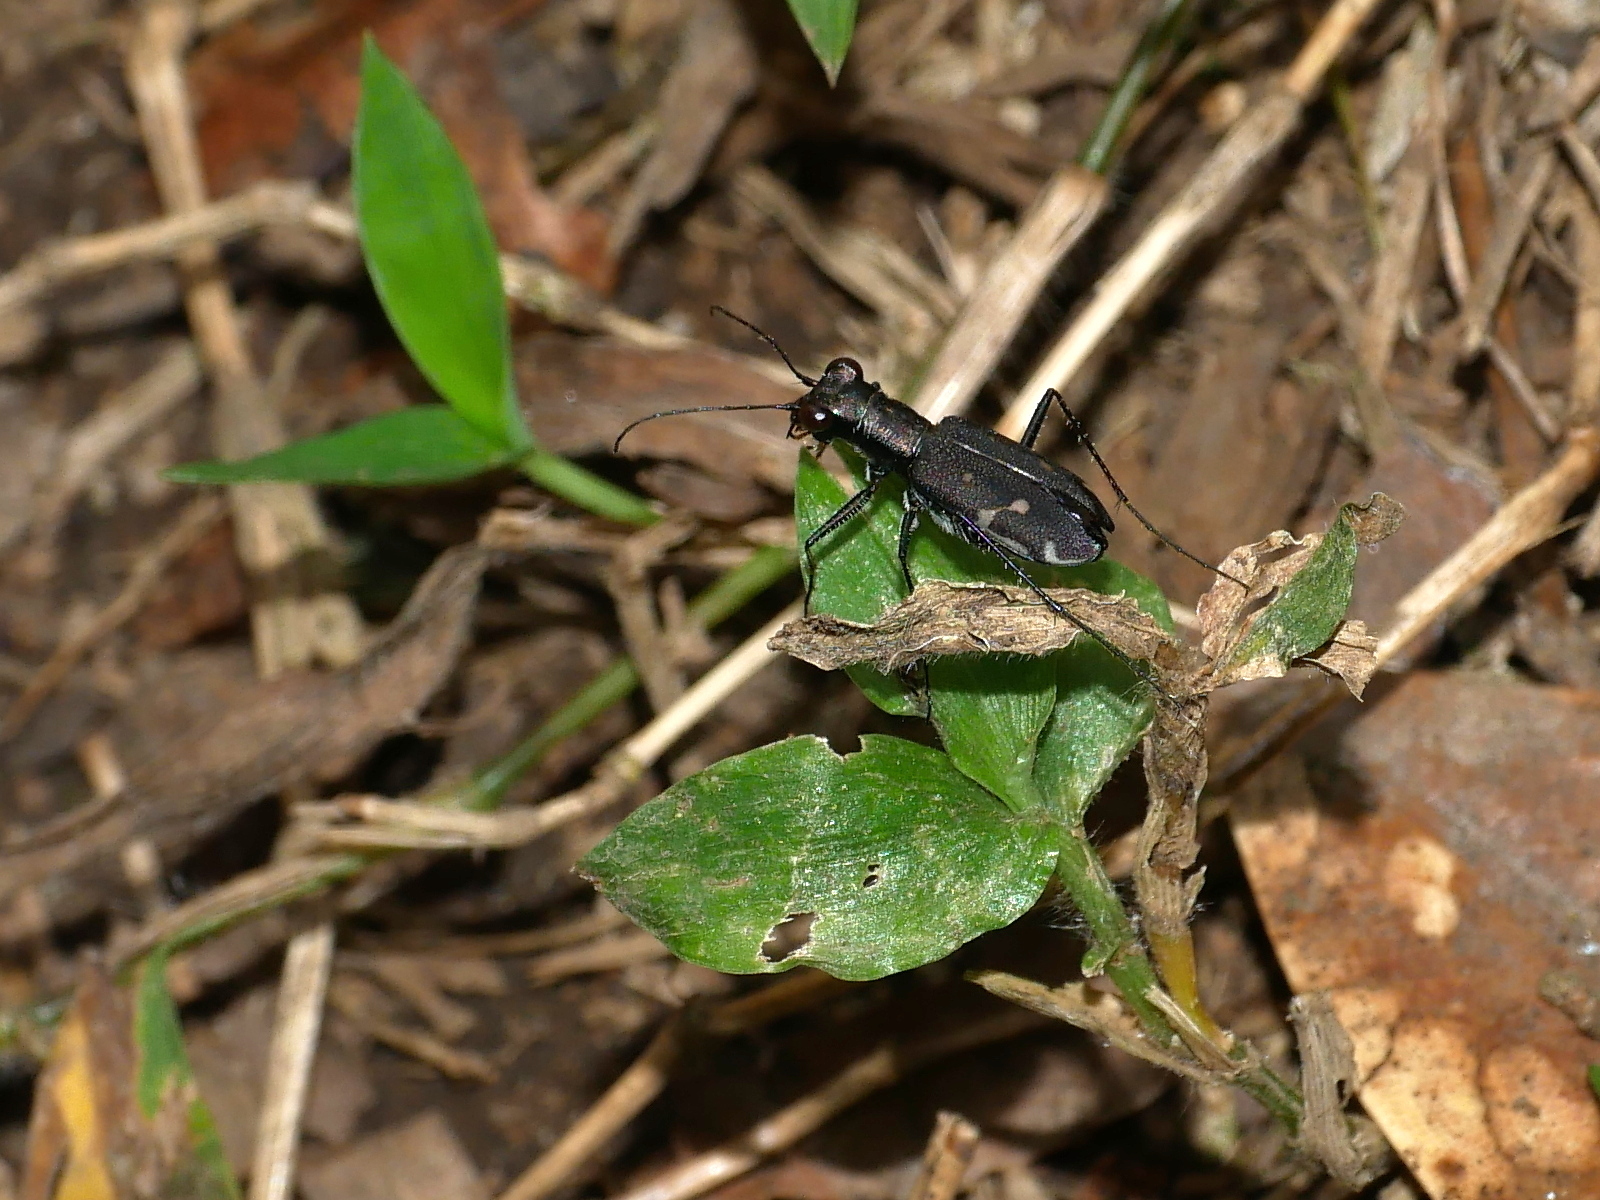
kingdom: Animalia
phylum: Arthropoda
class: Insecta
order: Coleoptera
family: Carabidae
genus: Cylindera
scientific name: Cylindera kaleea
